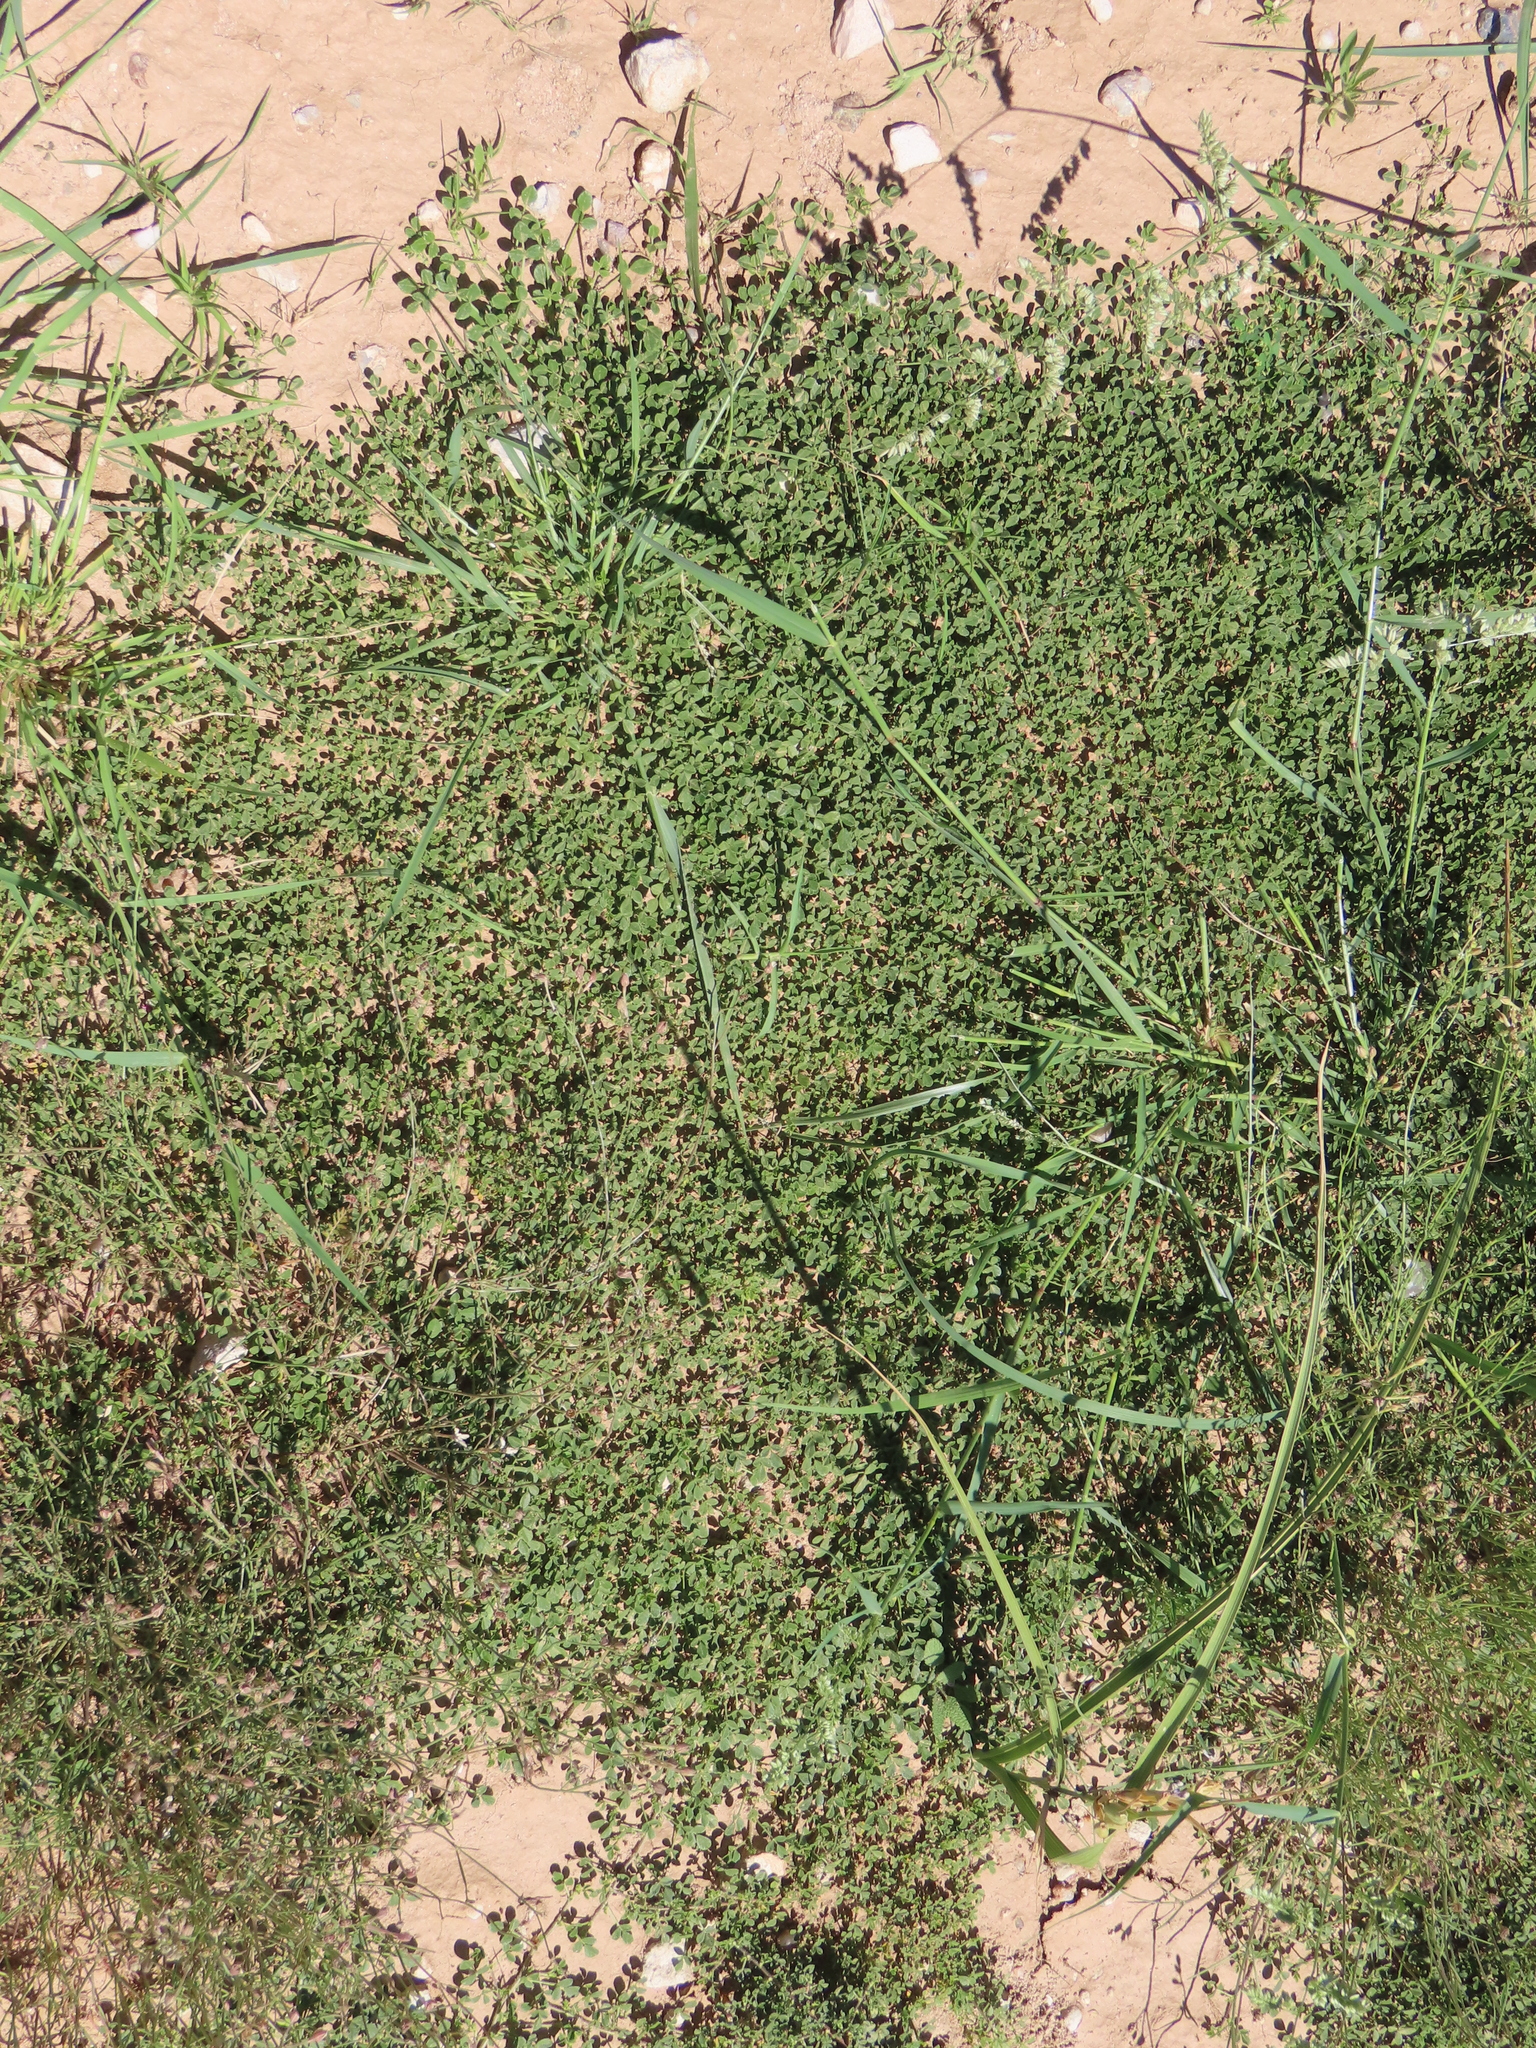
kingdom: Plantae
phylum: Tracheophyta
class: Magnoliopsida
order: Fabales
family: Fabaceae
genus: Cullen
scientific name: Cullen tomentosum
